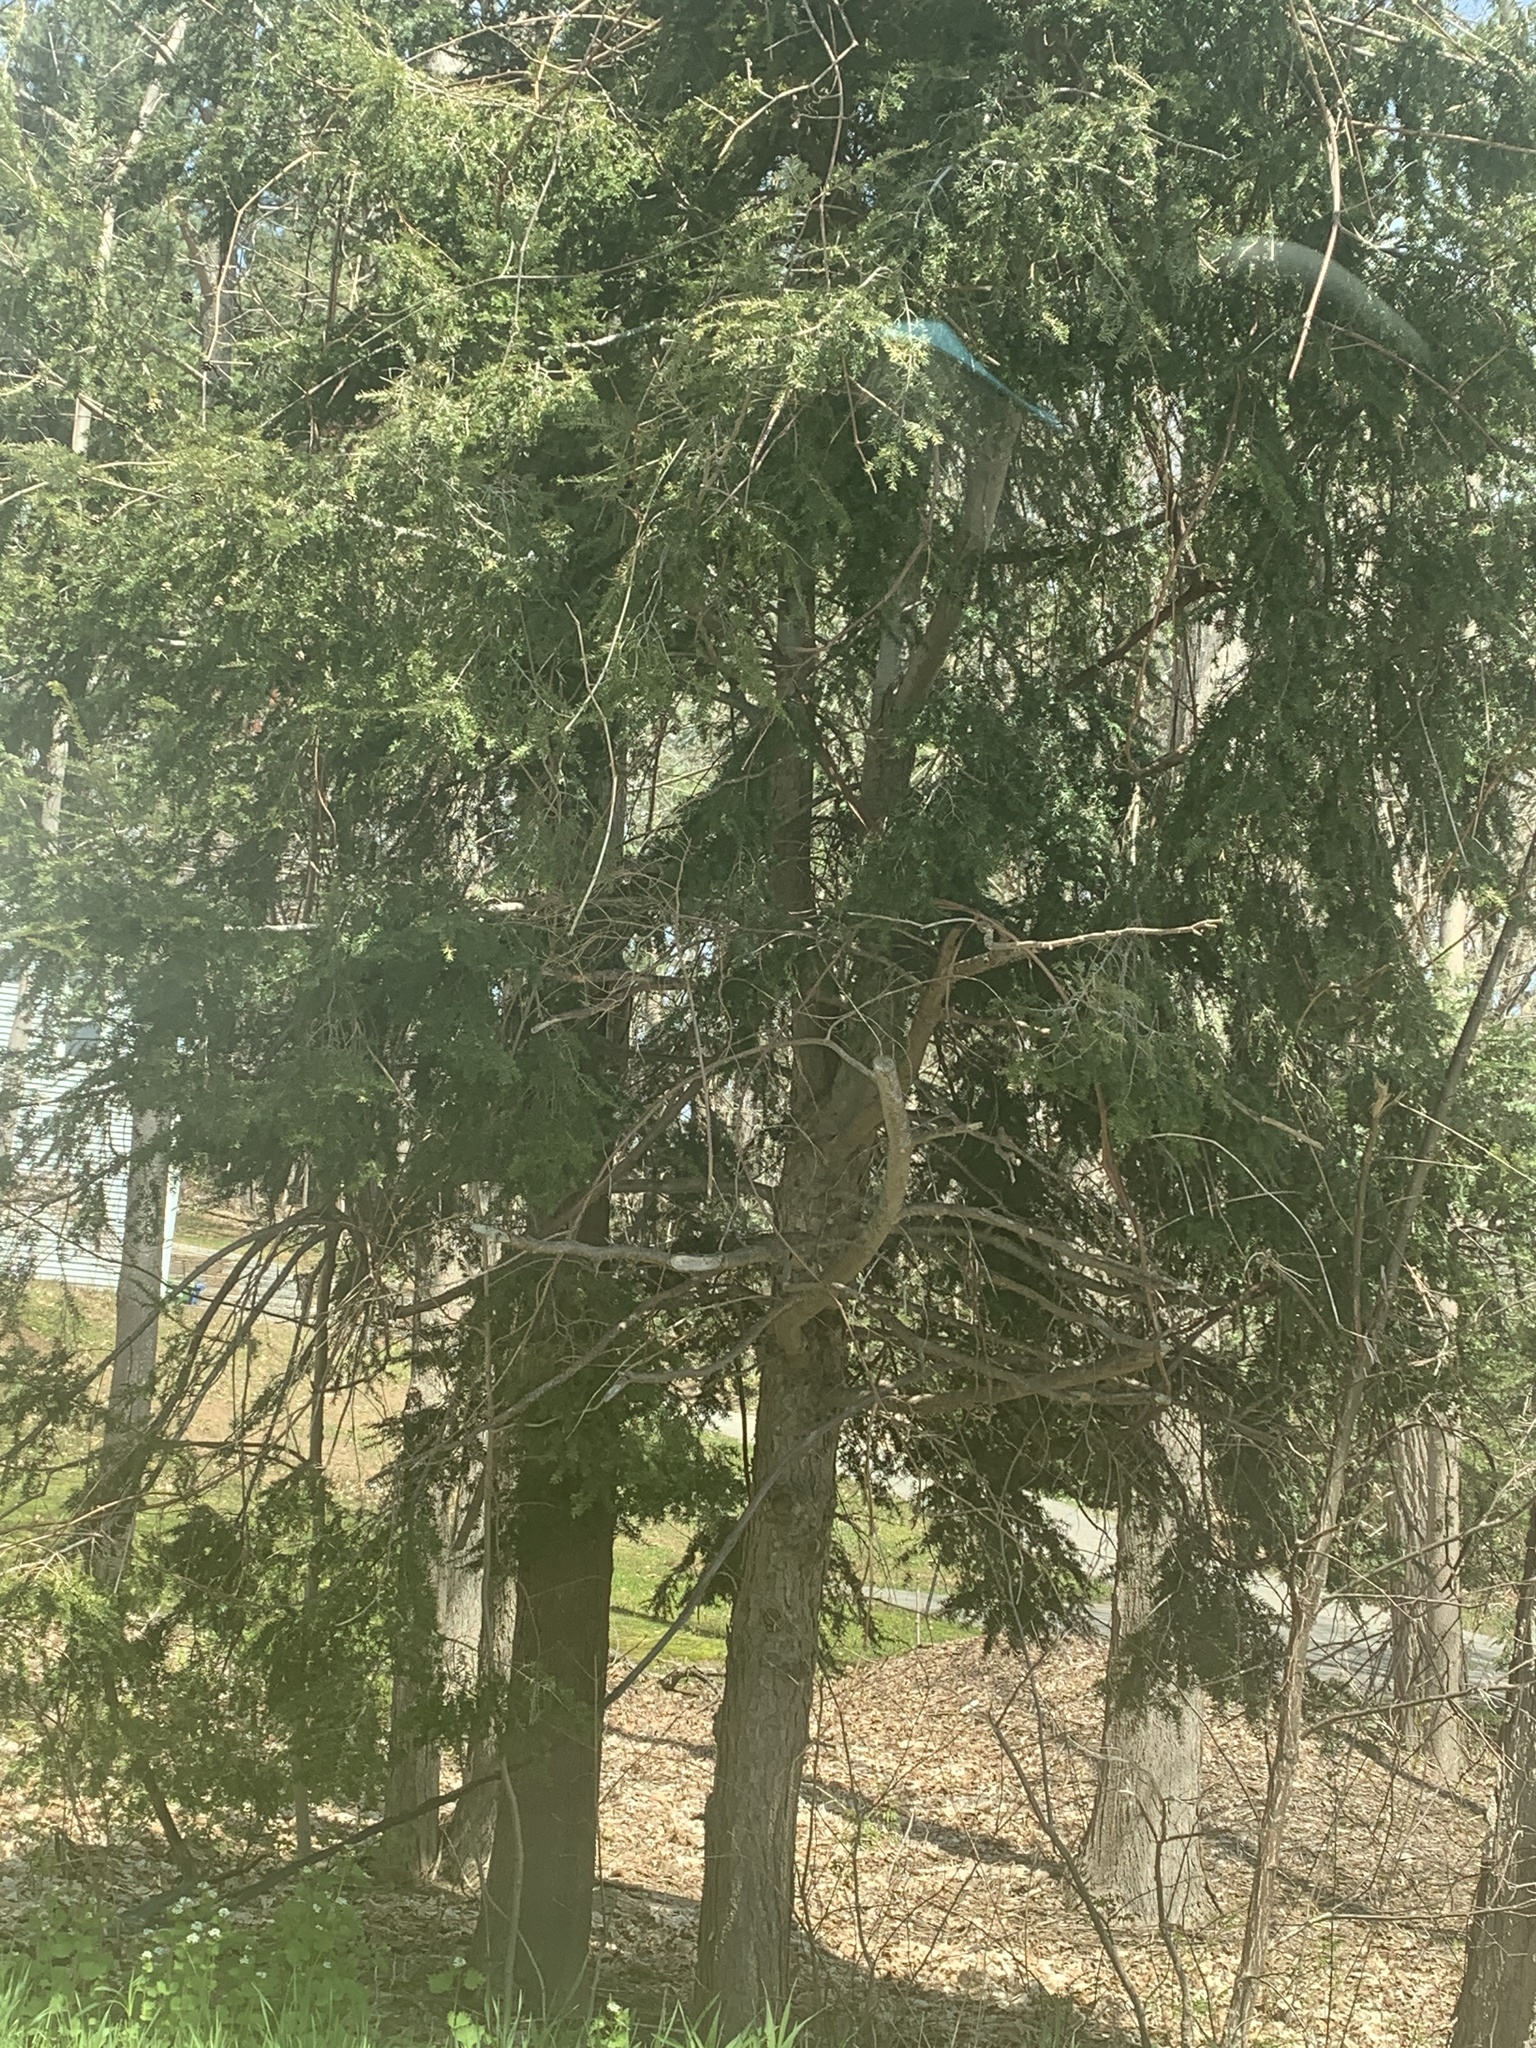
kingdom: Plantae
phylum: Tracheophyta
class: Pinopsida
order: Pinales
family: Pinaceae
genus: Tsuga
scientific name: Tsuga canadensis
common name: Eastern hemlock
